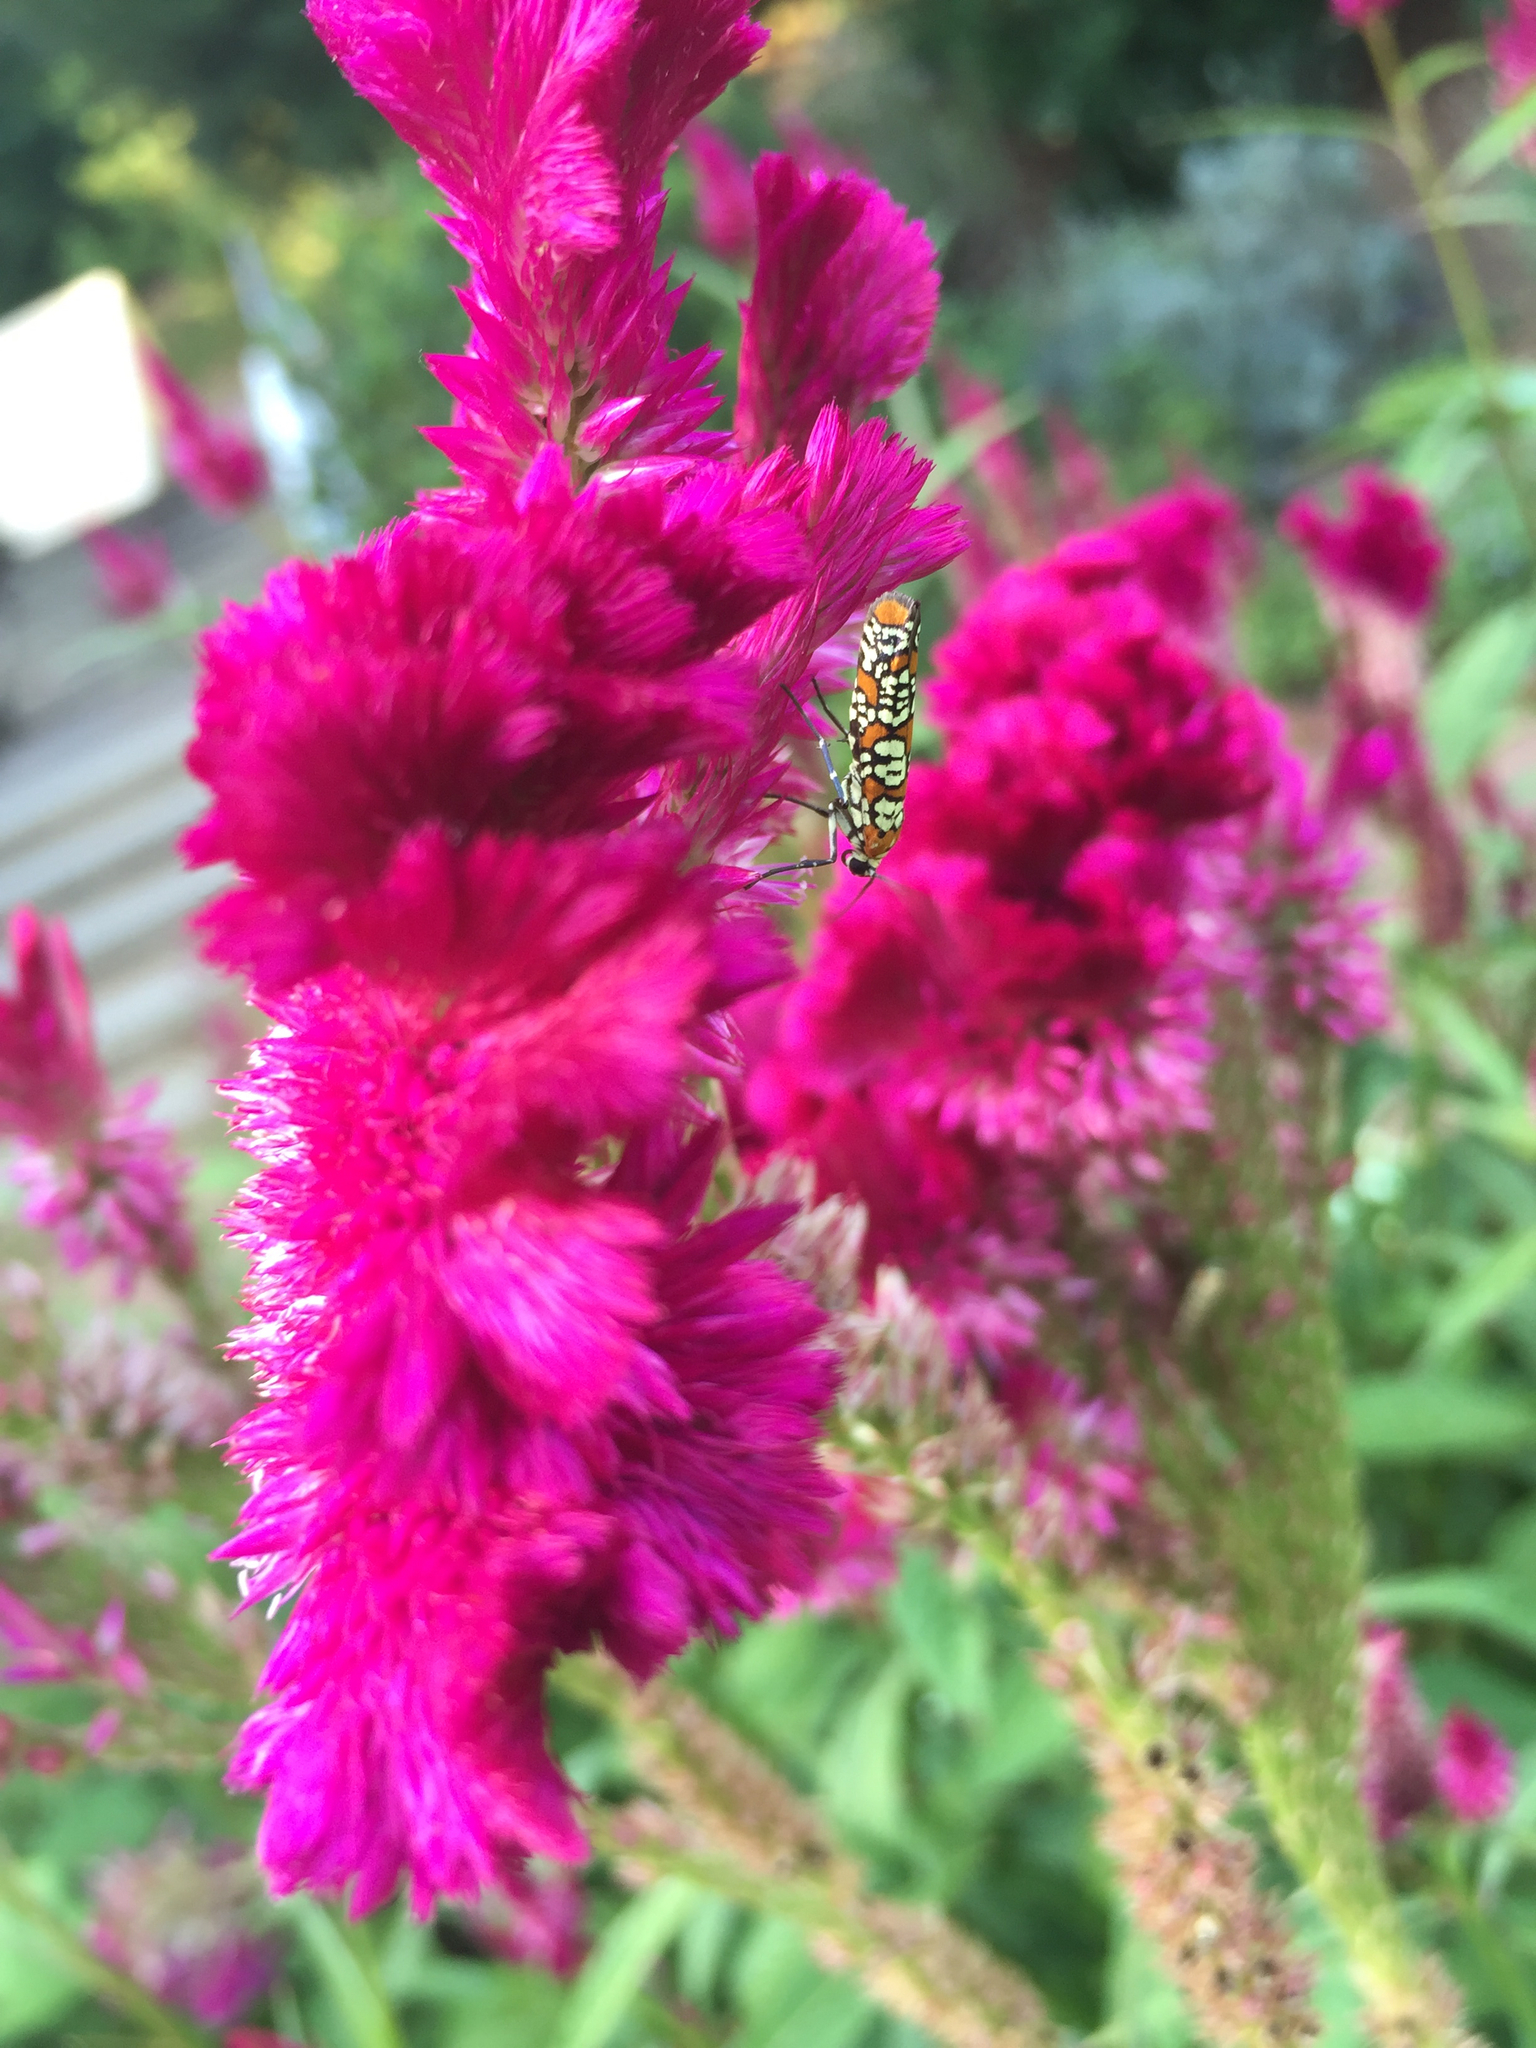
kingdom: Animalia
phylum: Arthropoda
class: Insecta
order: Lepidoptera
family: Attevidae
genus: Atteva
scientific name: Atteva punctella
